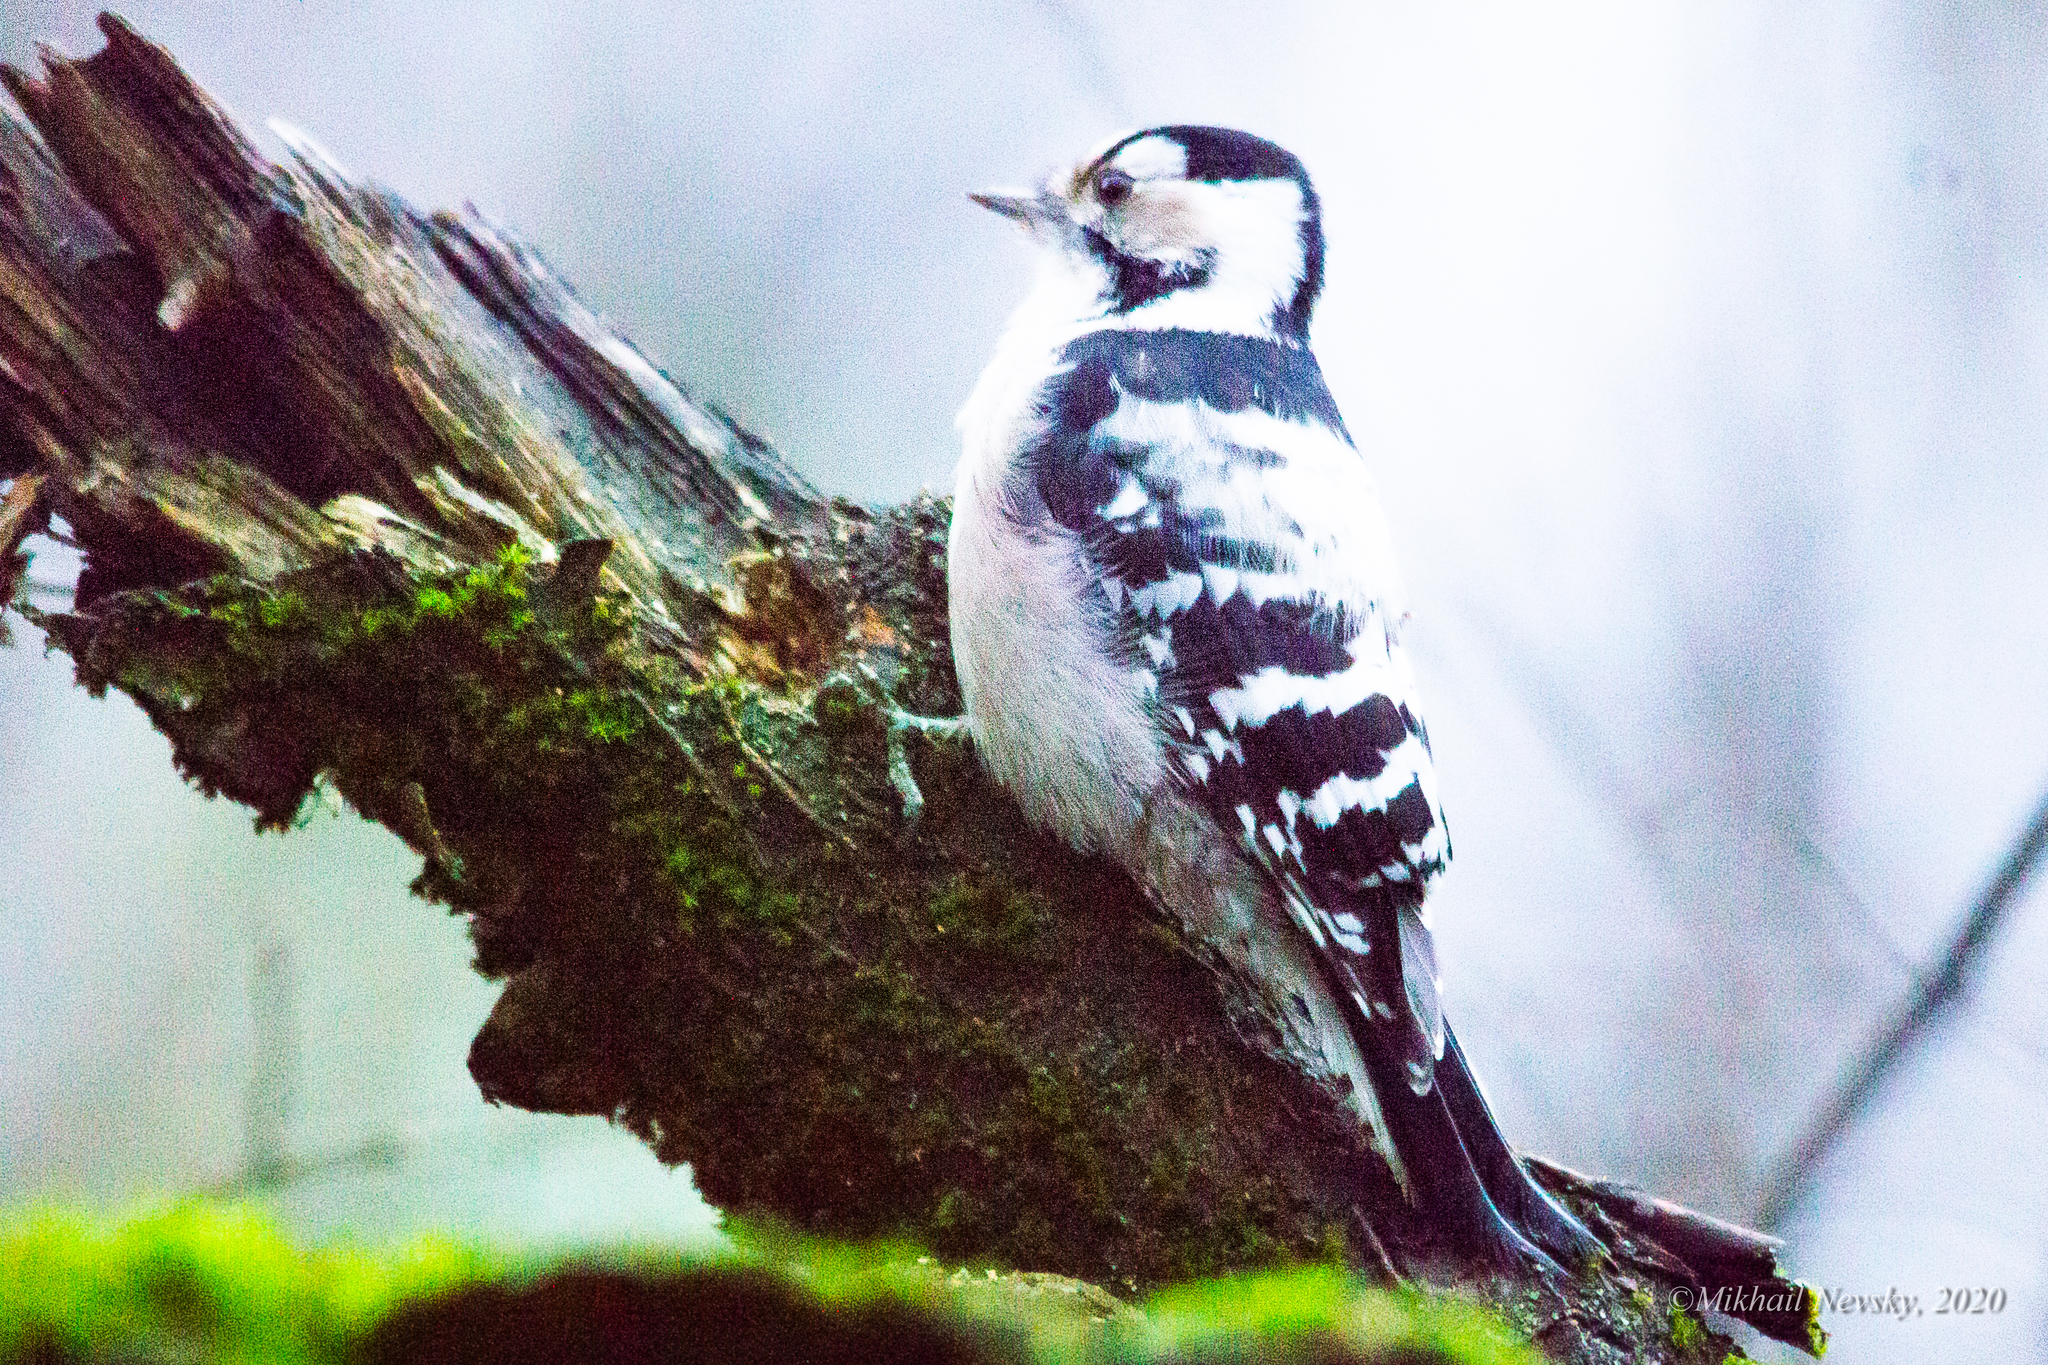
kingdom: Animalia
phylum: Chordata
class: Aves
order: Piciformes
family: Picidae
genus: Dryobates
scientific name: Dryobates minor
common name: Lesser spotted woodpecker
